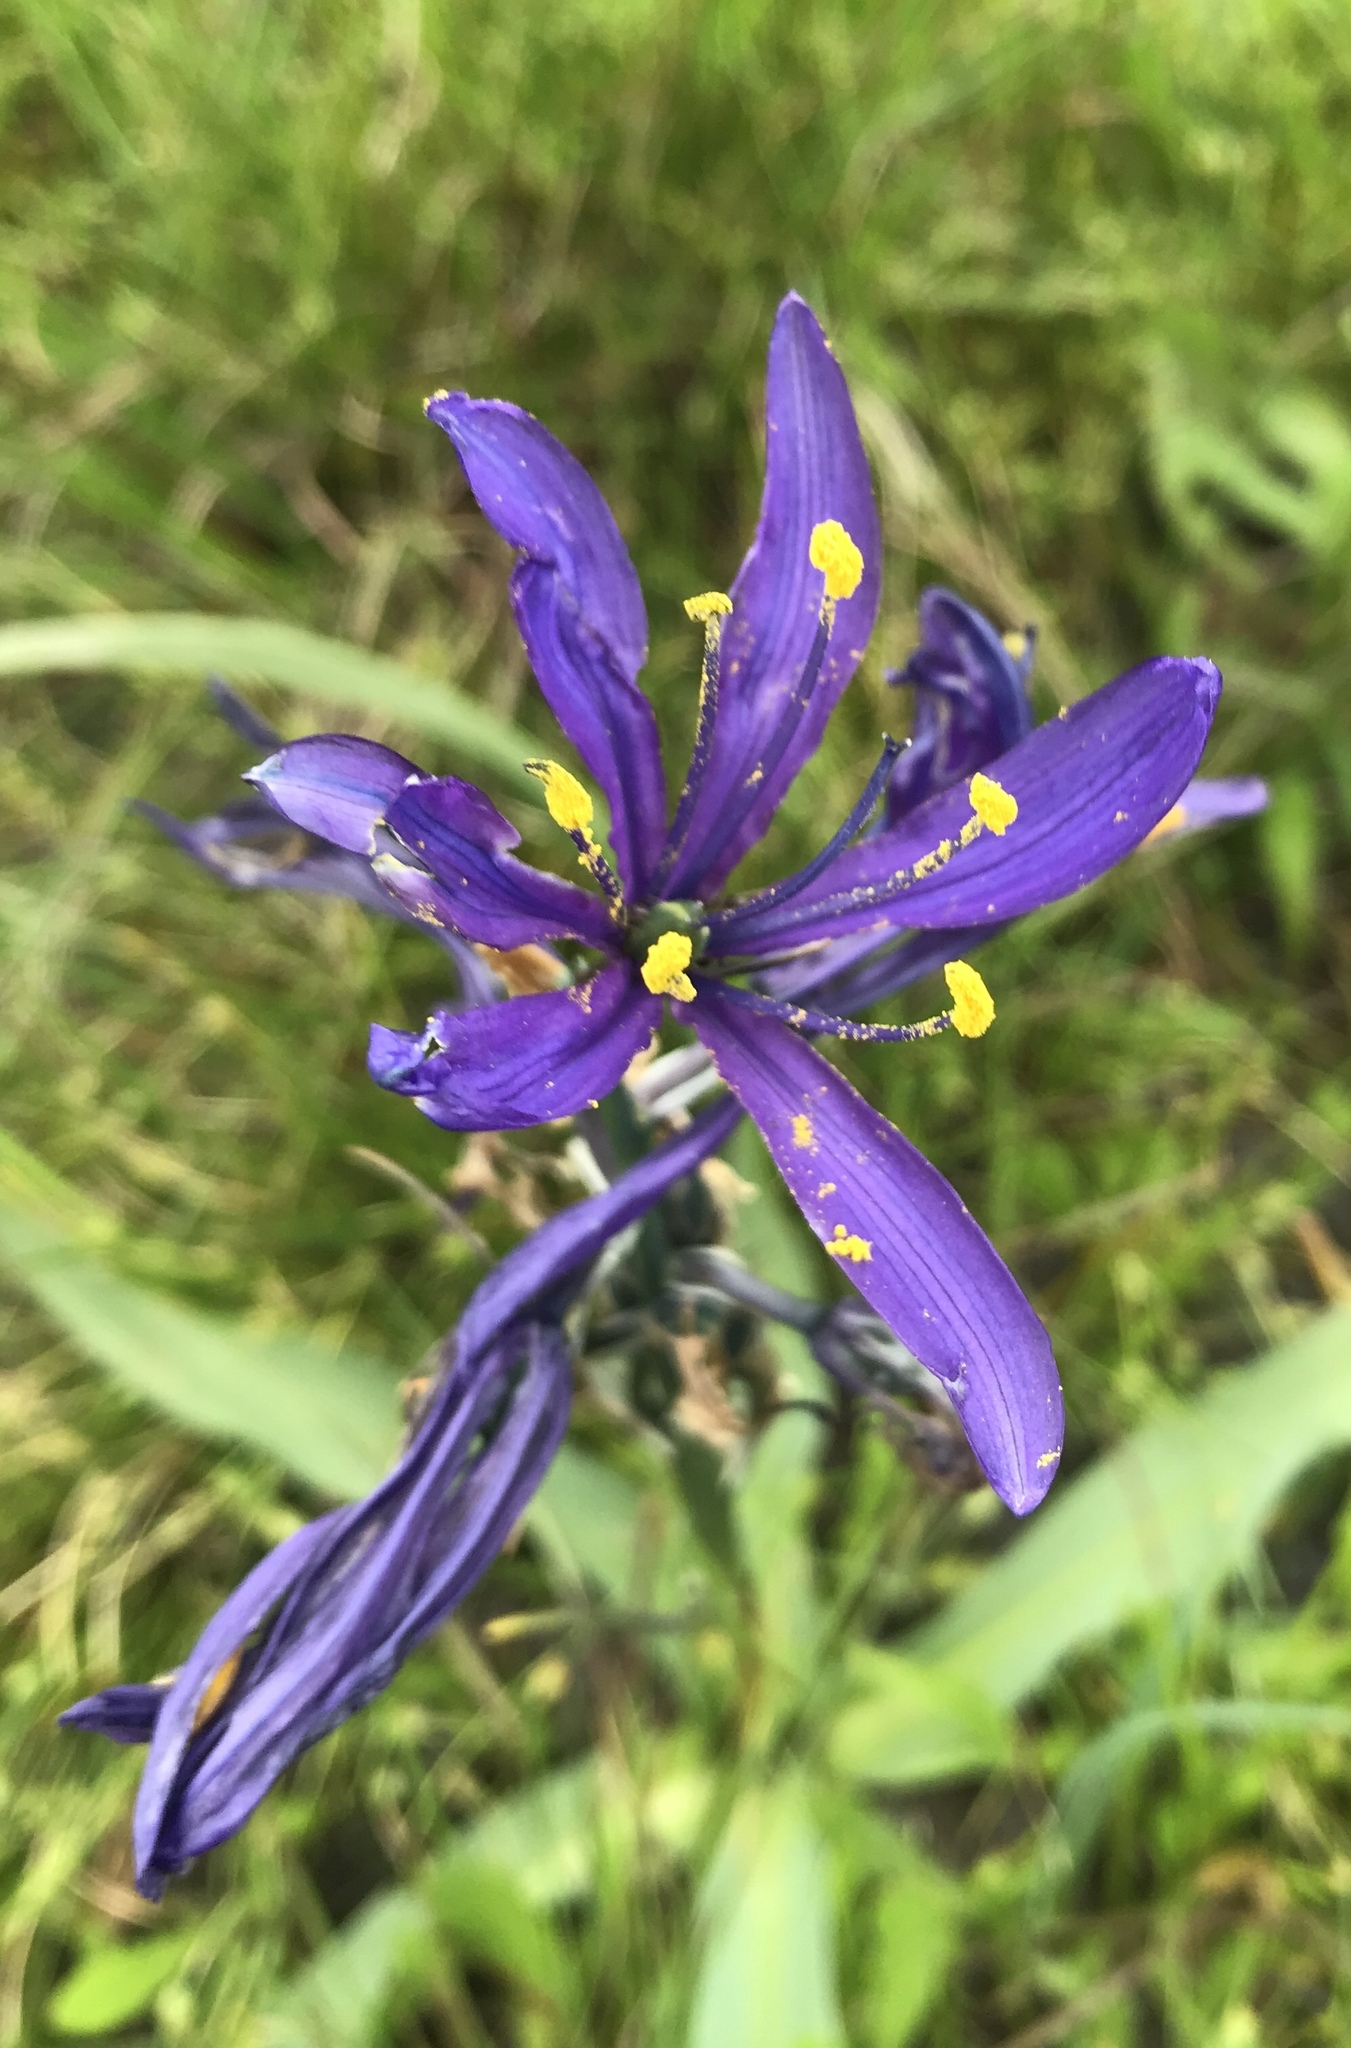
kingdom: Plantae
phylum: Tracheophyta
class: Liliopsida
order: Asparagales
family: Asparagaceae
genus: Camassia
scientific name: Camassia quamash
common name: Common camas
